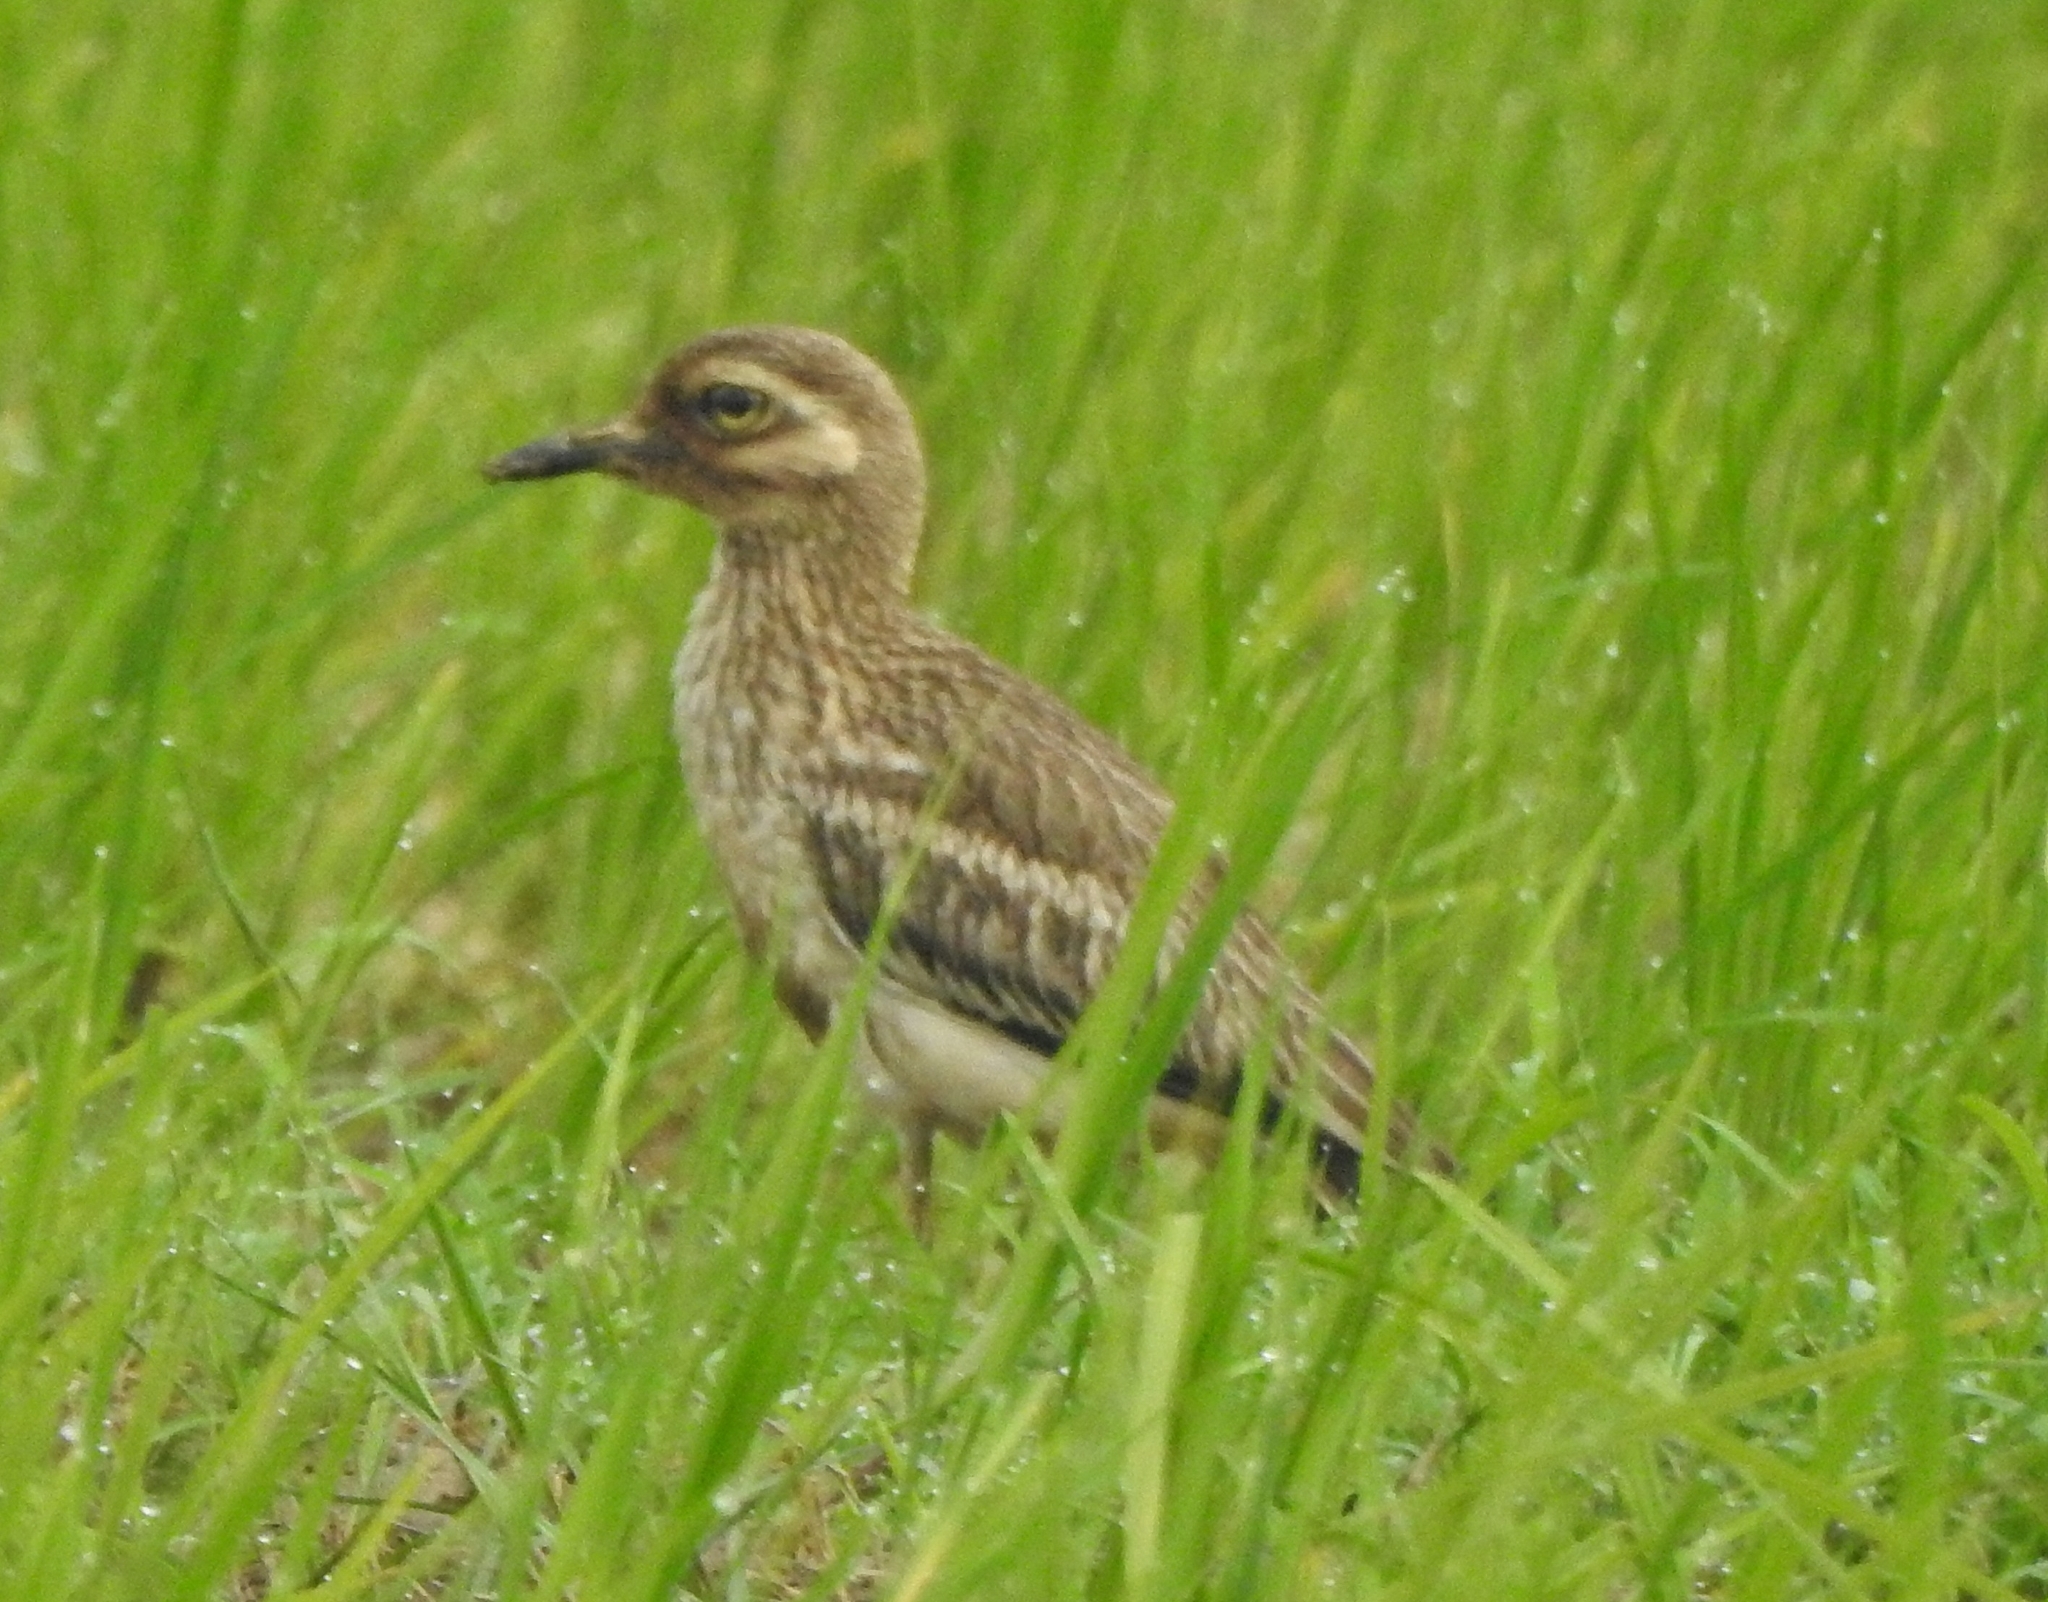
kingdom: Animalia
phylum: Chordata
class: Aves
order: Charadriiformes
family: Burhinidae
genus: Burhinus
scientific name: Burhinus indicus
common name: Indian thick-knee
